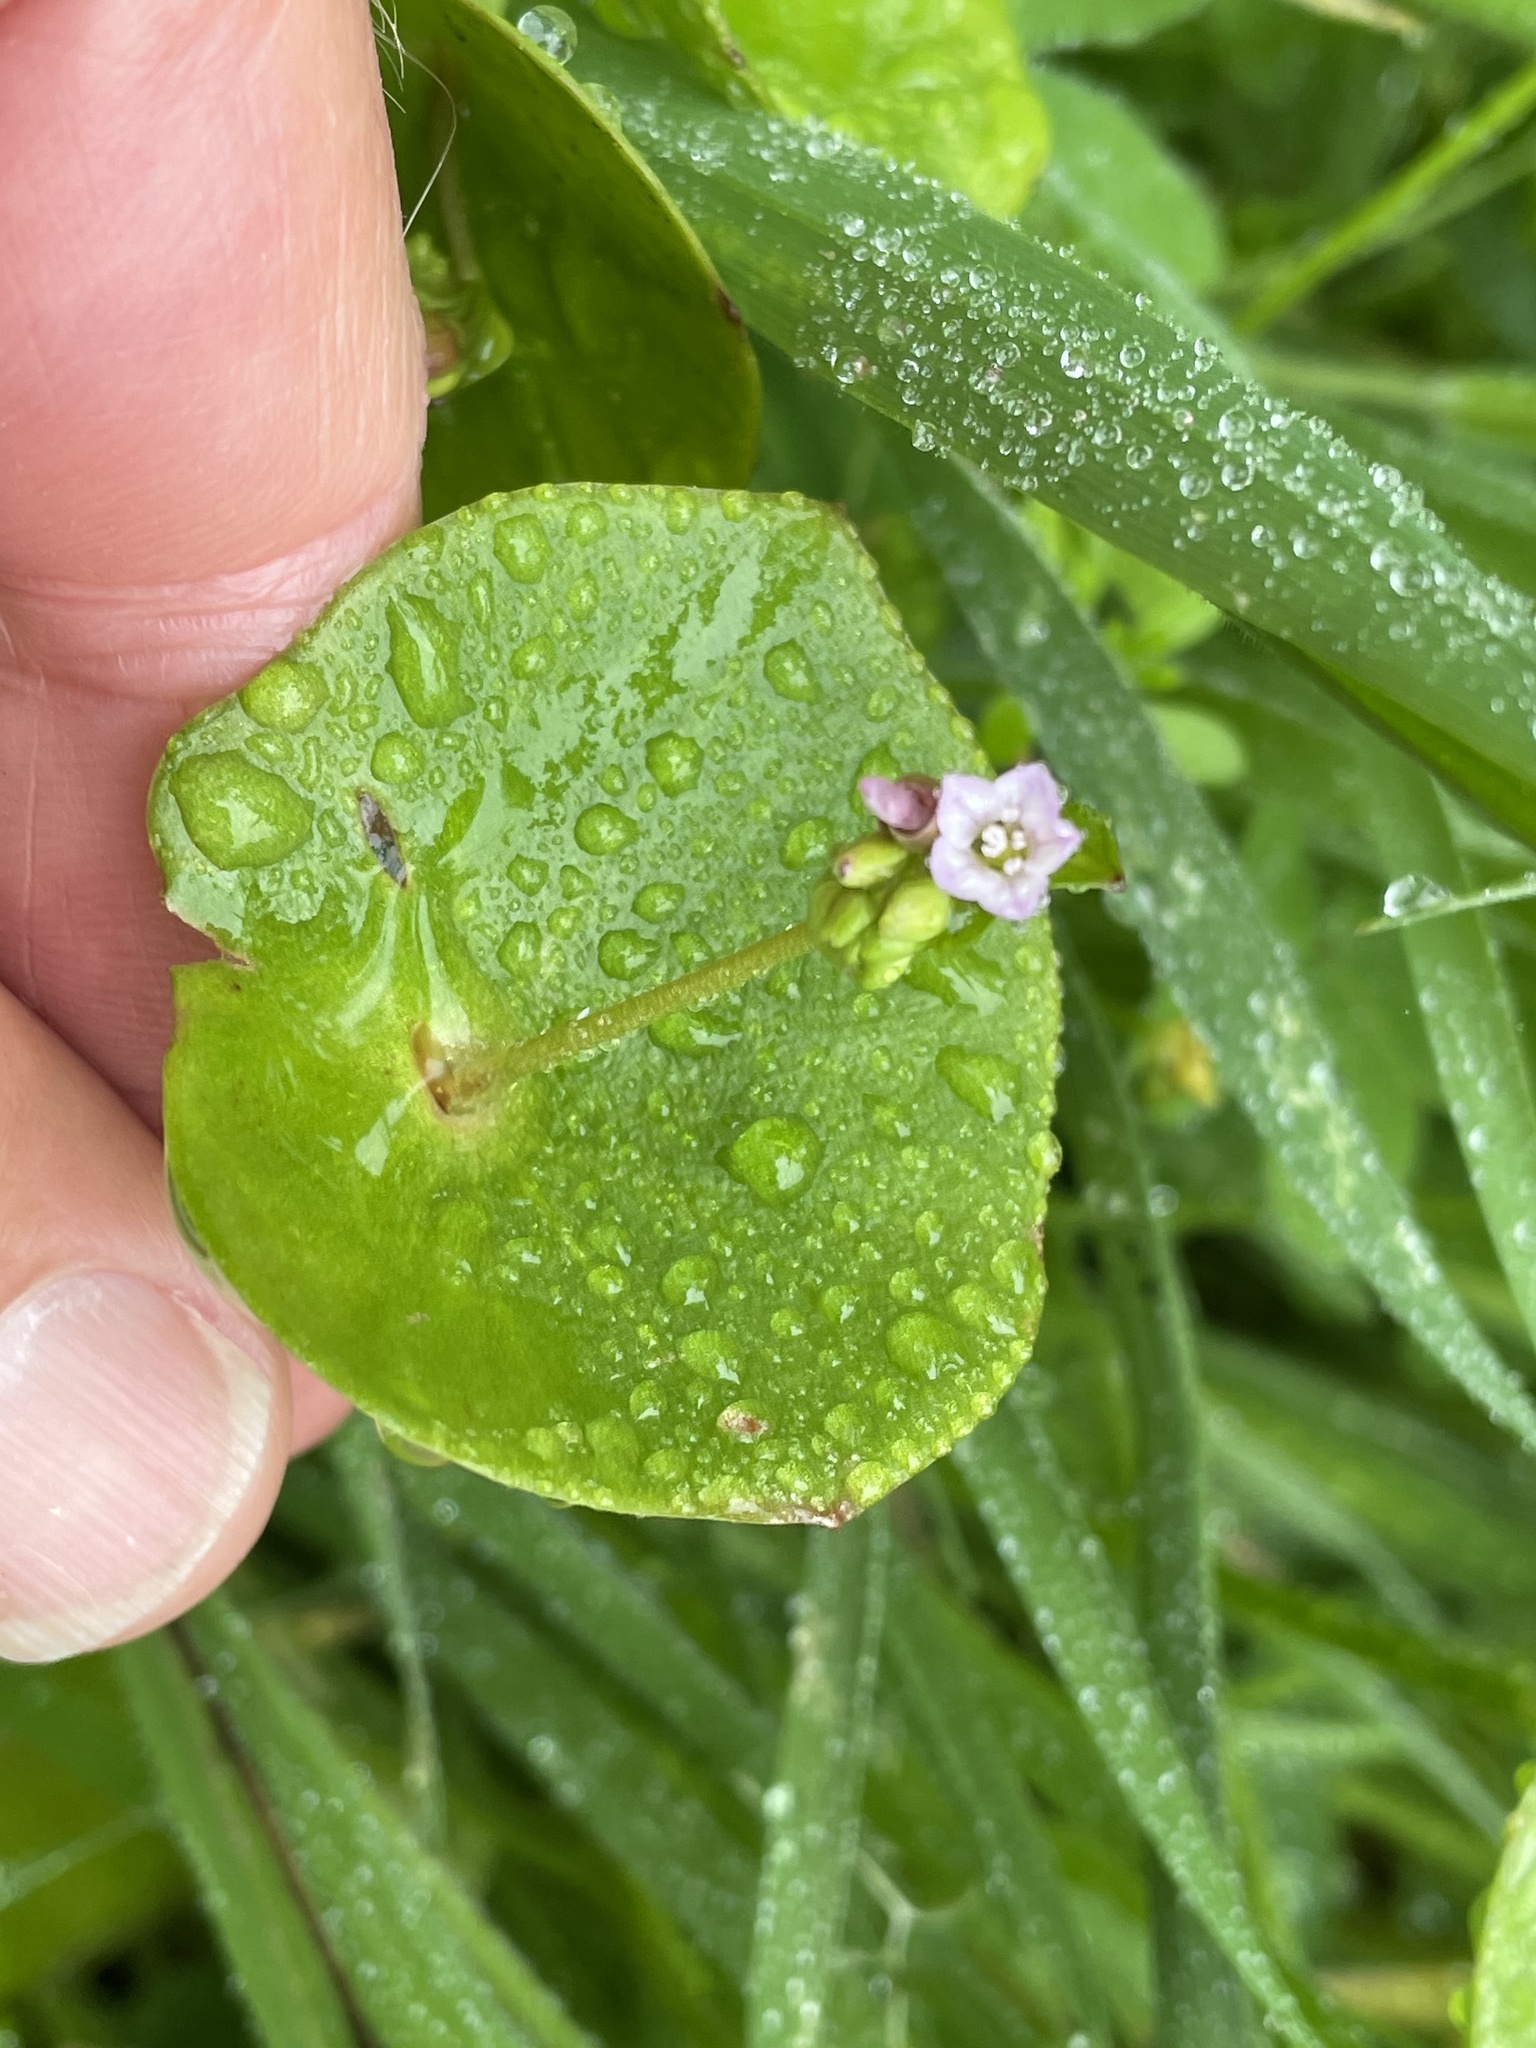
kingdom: Plantae
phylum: Tracheophyta
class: Magnoliopsida
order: Caryophyllales
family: Montiaceae
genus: Claytonia
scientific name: Claytonia perfoliata
